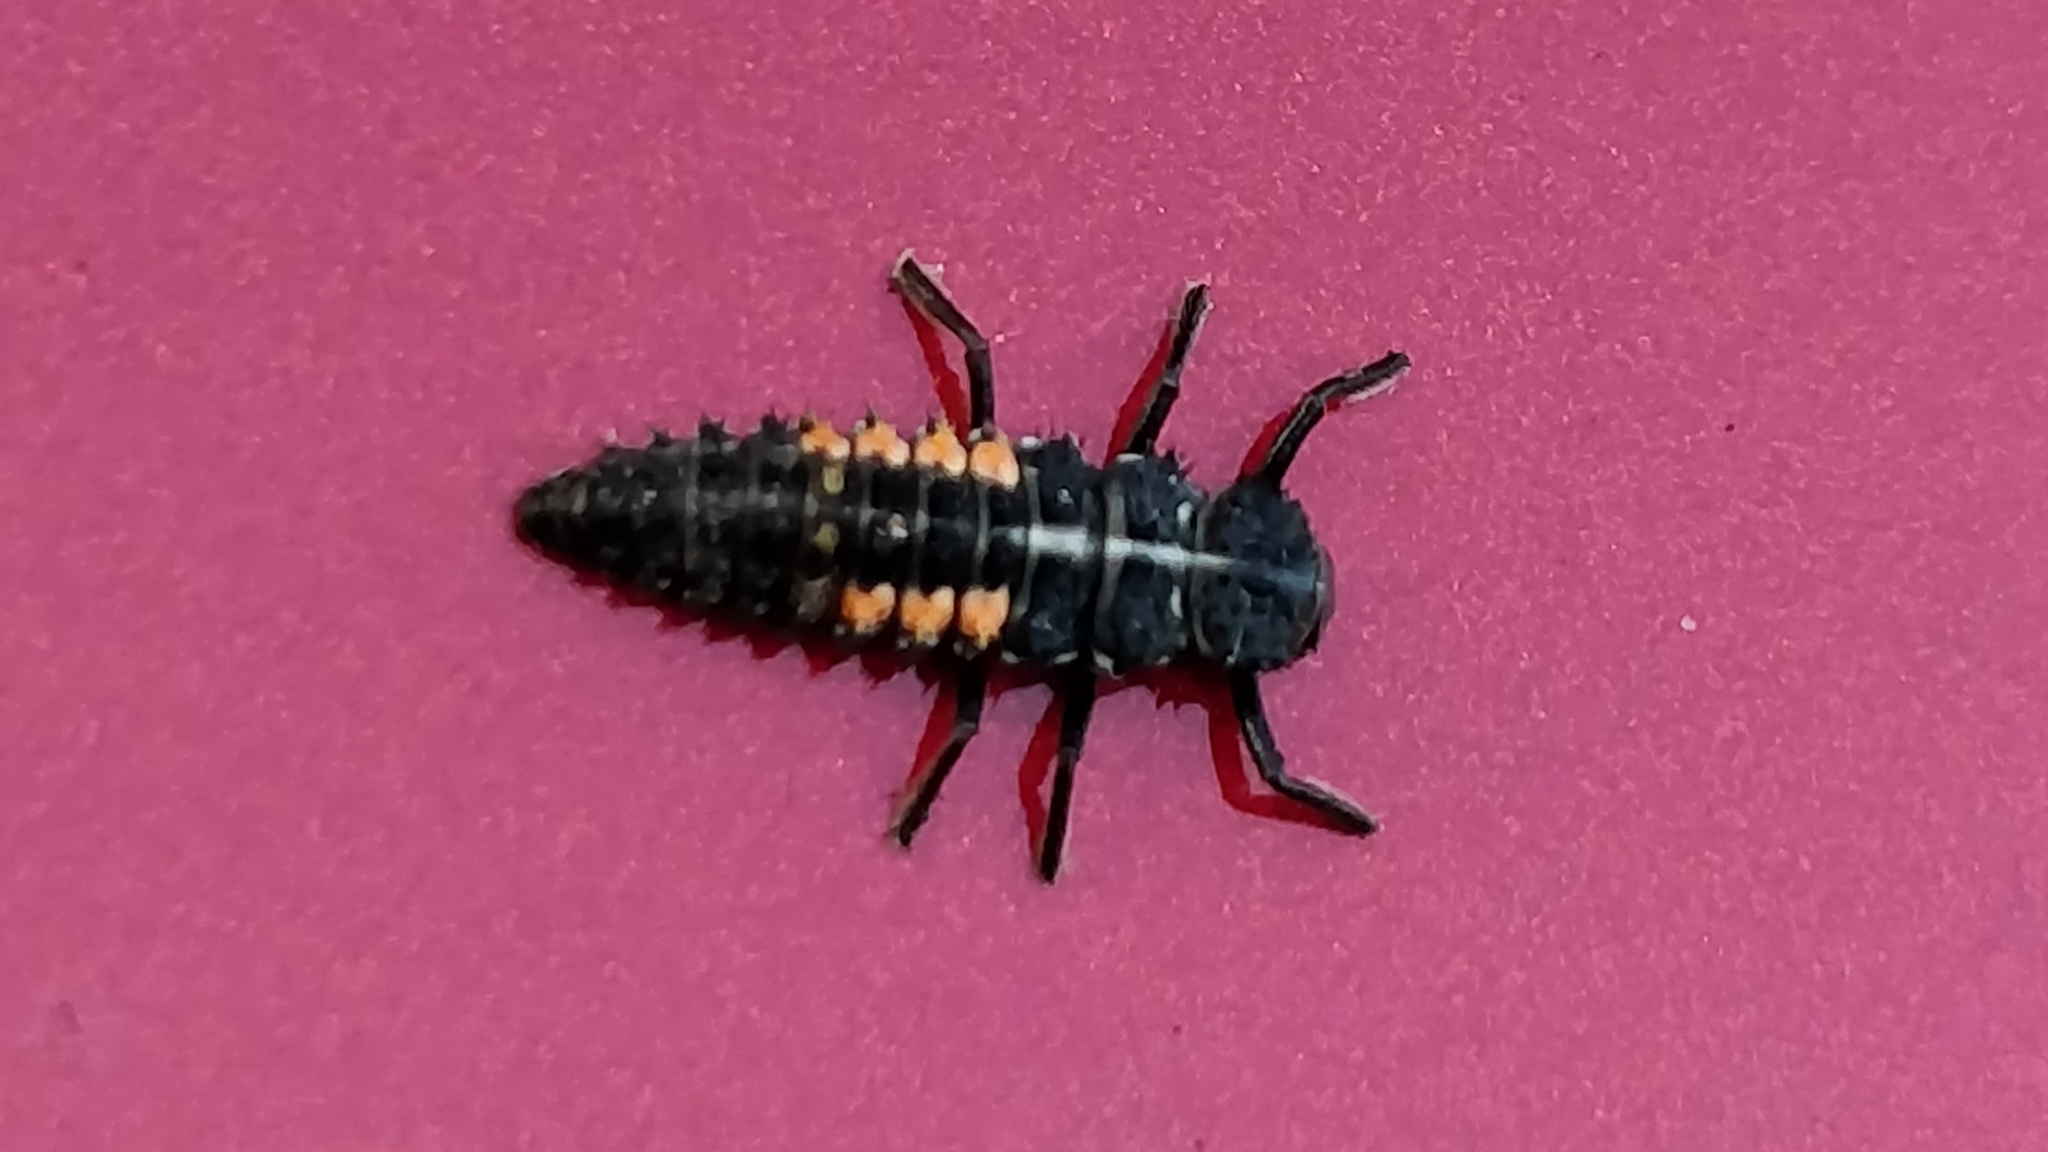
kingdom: Animalia
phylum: Arthropoda
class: Insecta
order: Coleoptera
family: Coccinellidae
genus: Harmonia
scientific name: Harmonia quadripunctata
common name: Cream-streaked ladybird
